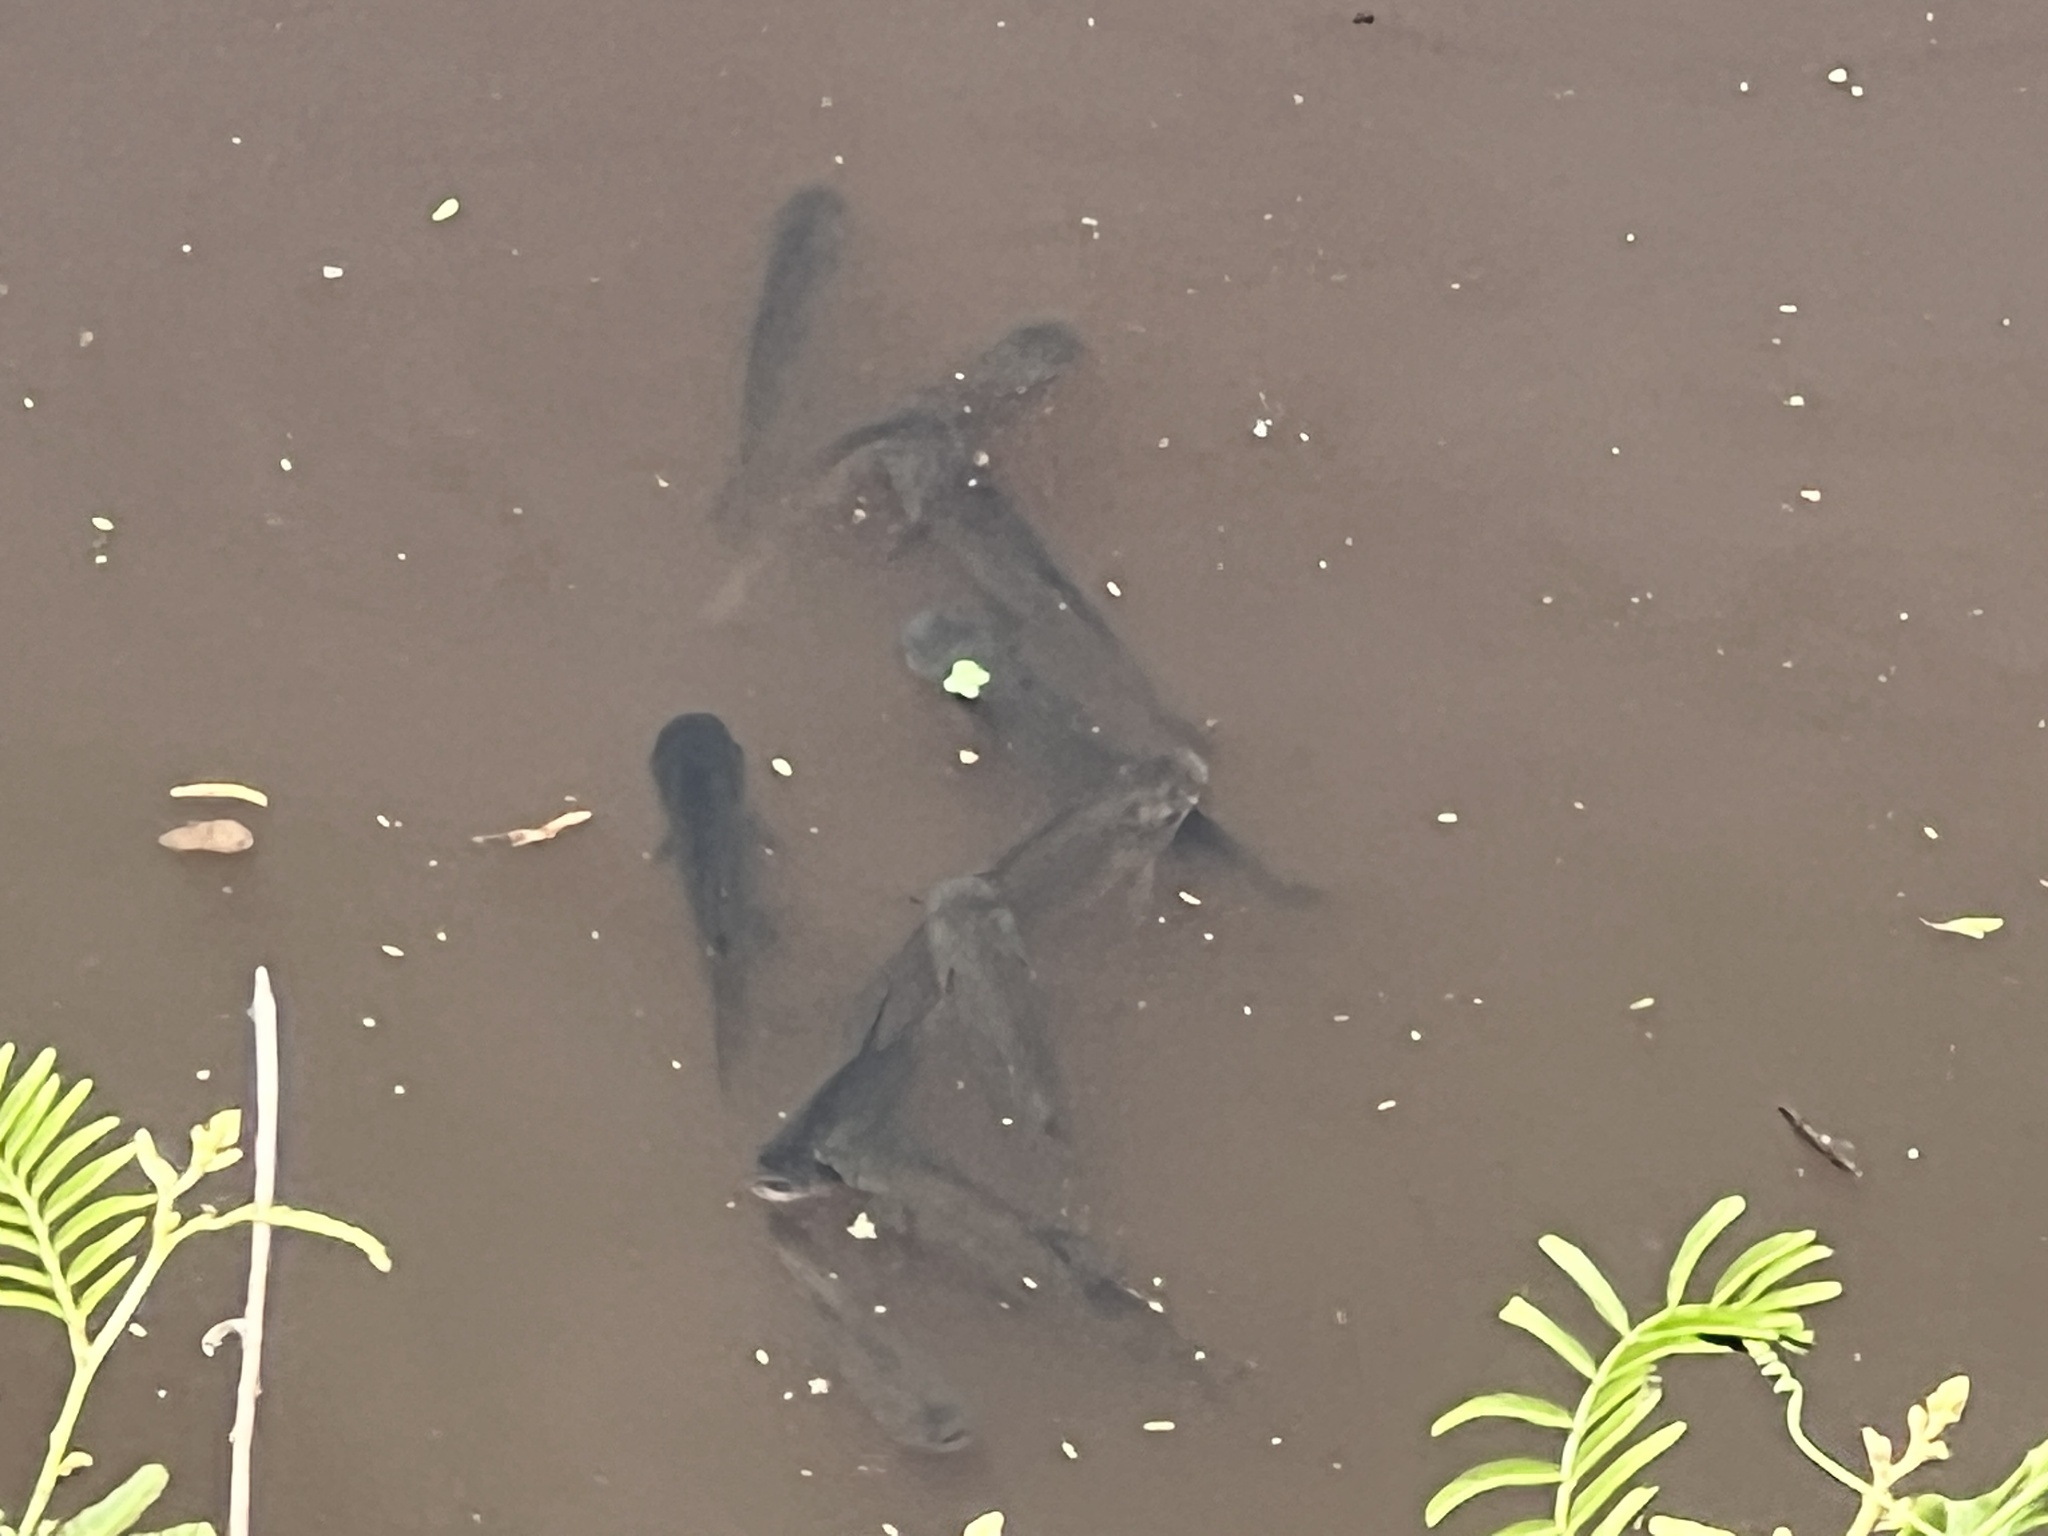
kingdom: Animalia
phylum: Chordata
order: Characiformes
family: Prochilodontidae
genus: Prochilodus
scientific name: Prochilodus lineatus
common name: Curimbata
